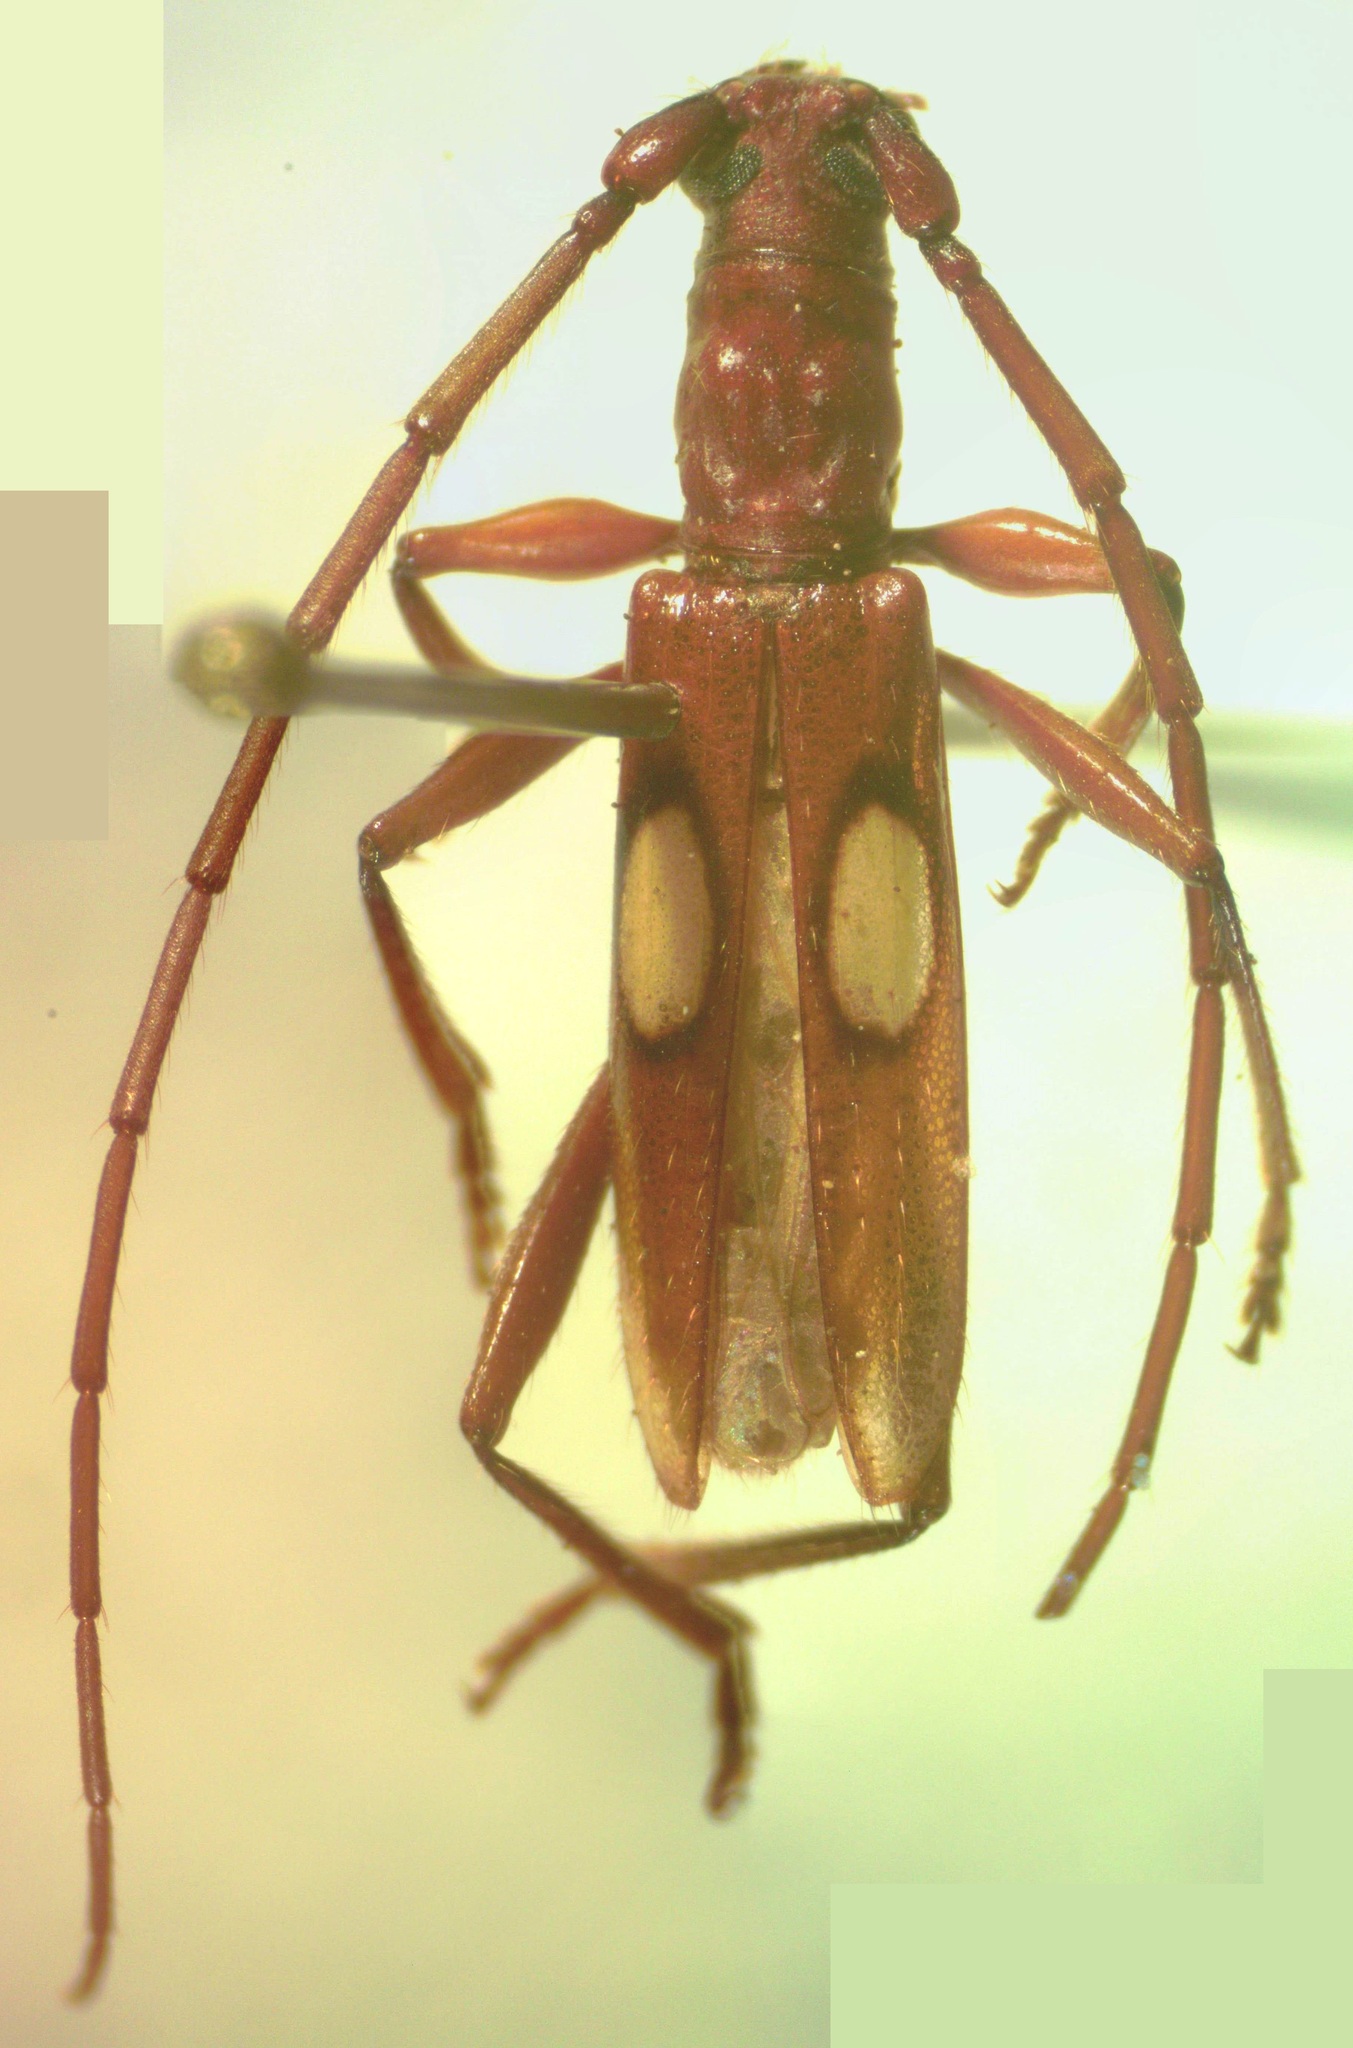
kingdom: Animalia
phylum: Arthropoda
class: Insecta
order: Coleoptera
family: Cerambycidae
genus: Diasporidion
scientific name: Diasporidion duplicatum
